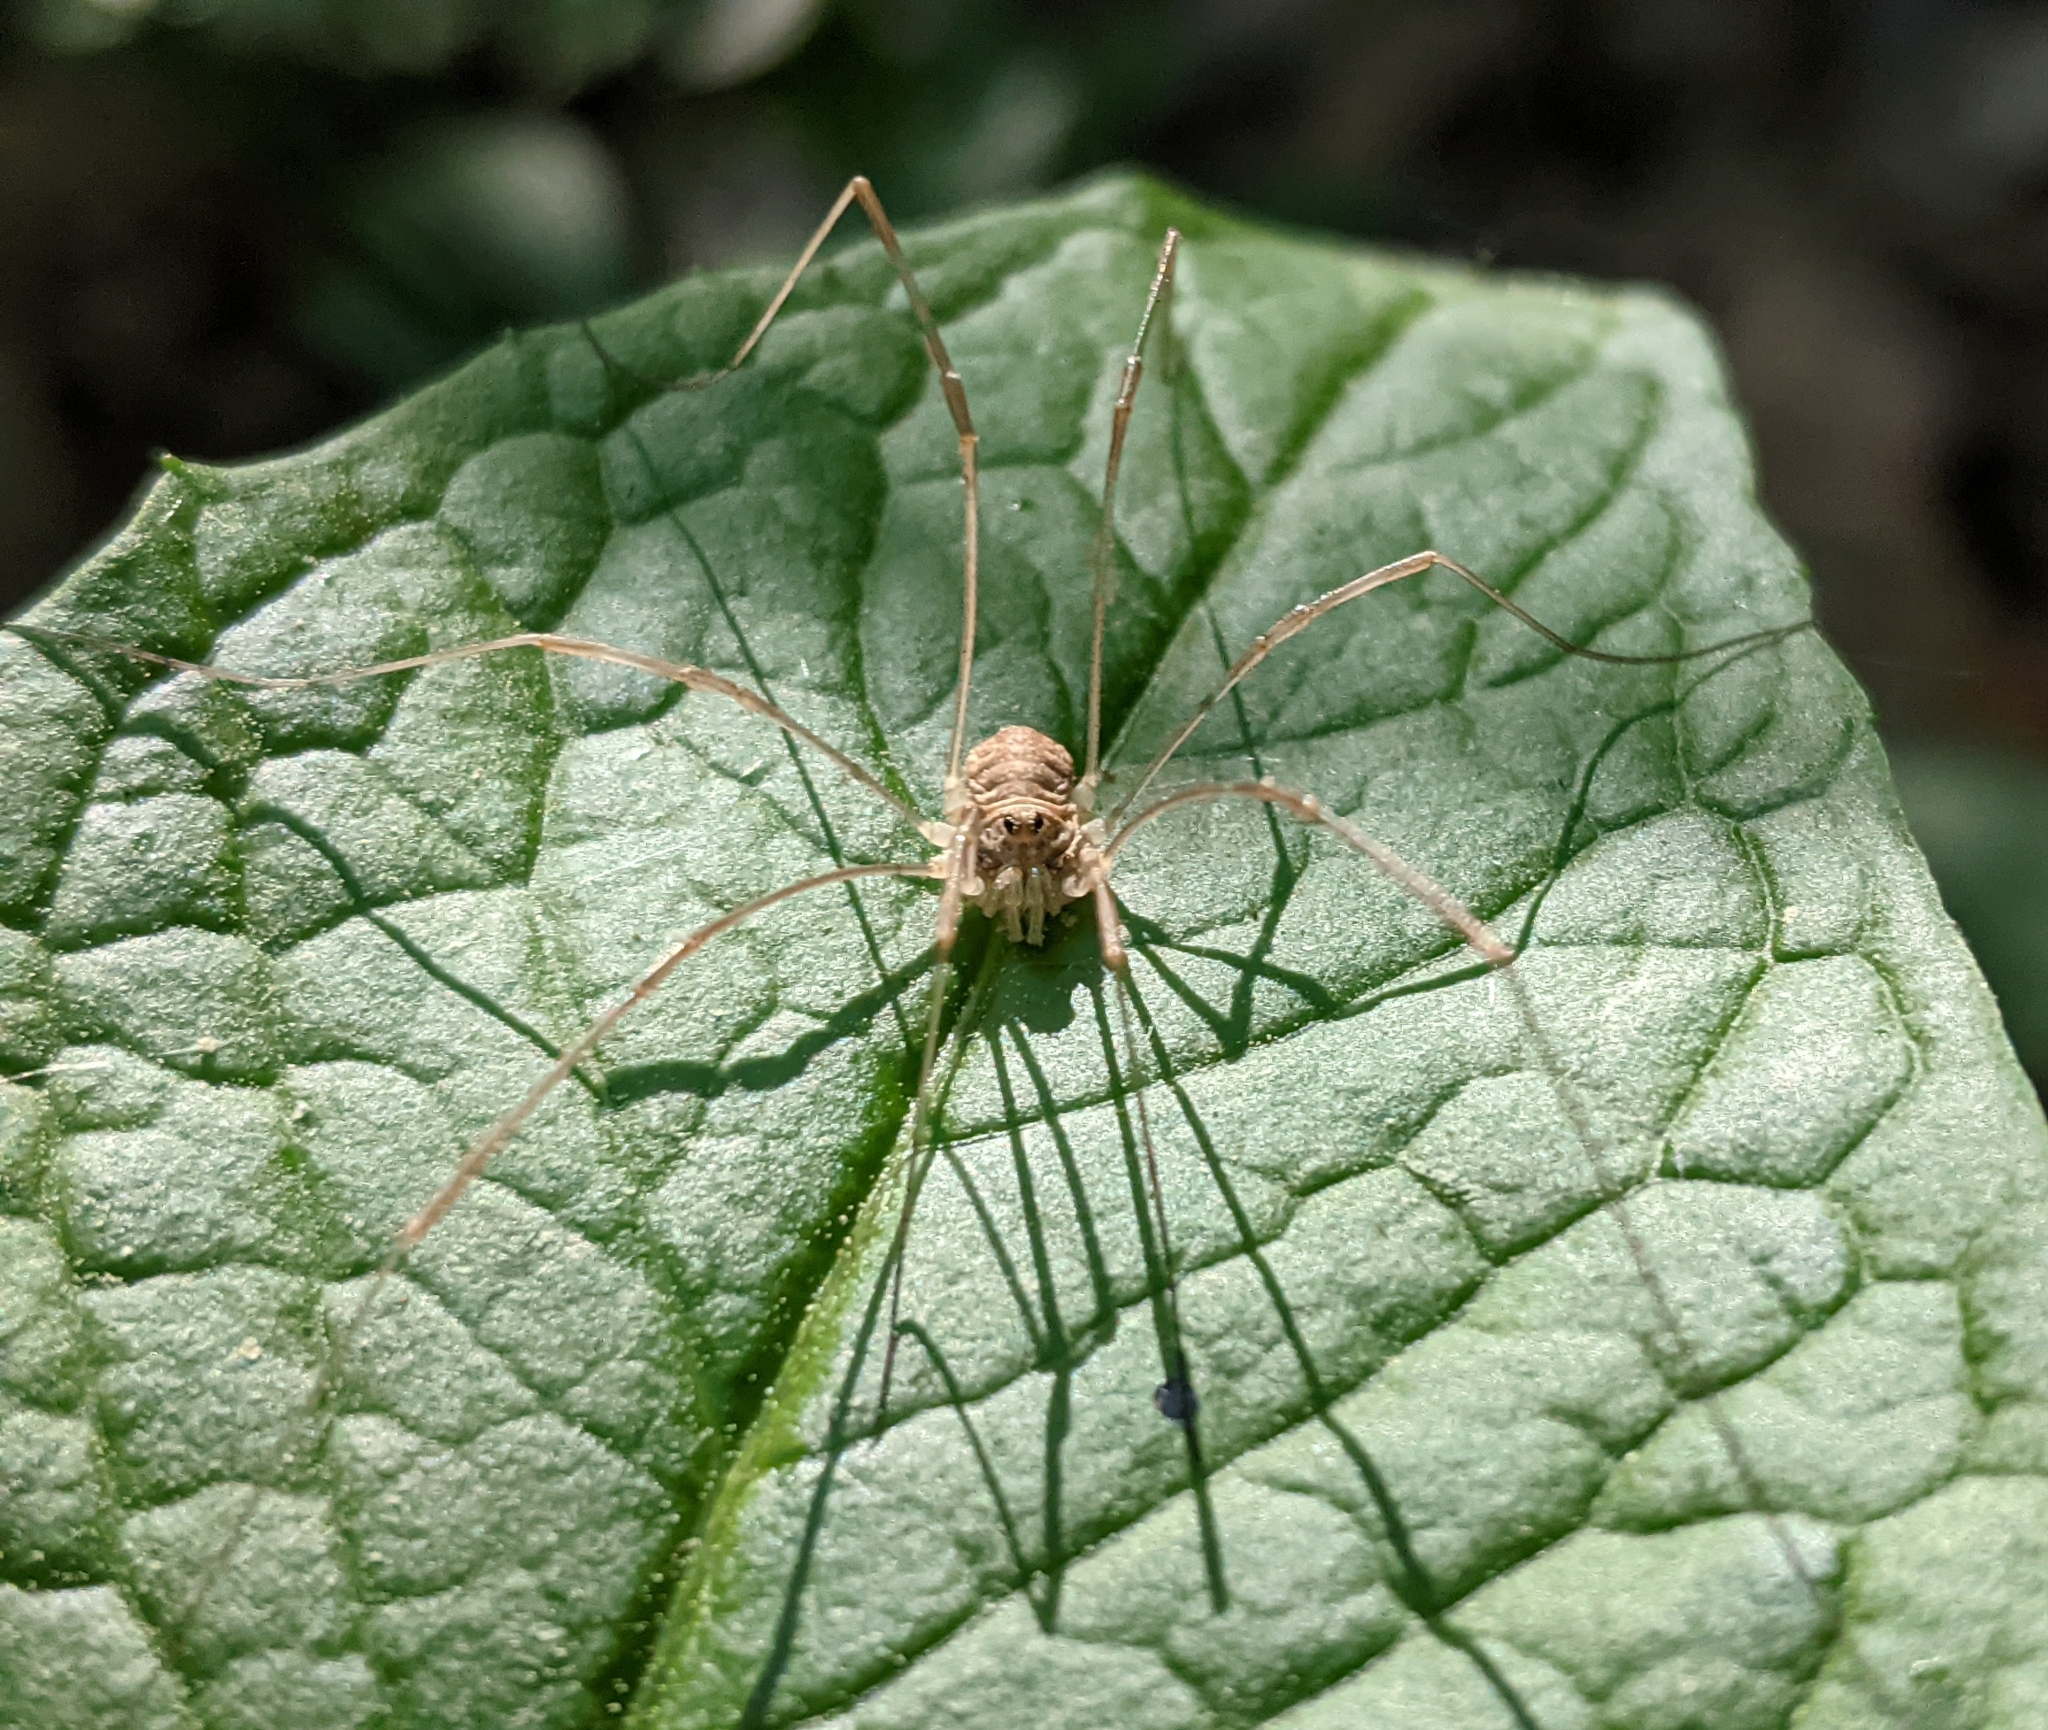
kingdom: Animalia
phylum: Arthropoda
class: Arachnida
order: Opiliones
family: Phalangiidae
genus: Rilaena
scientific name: Rilaena triangularis
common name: Spring harvestman
